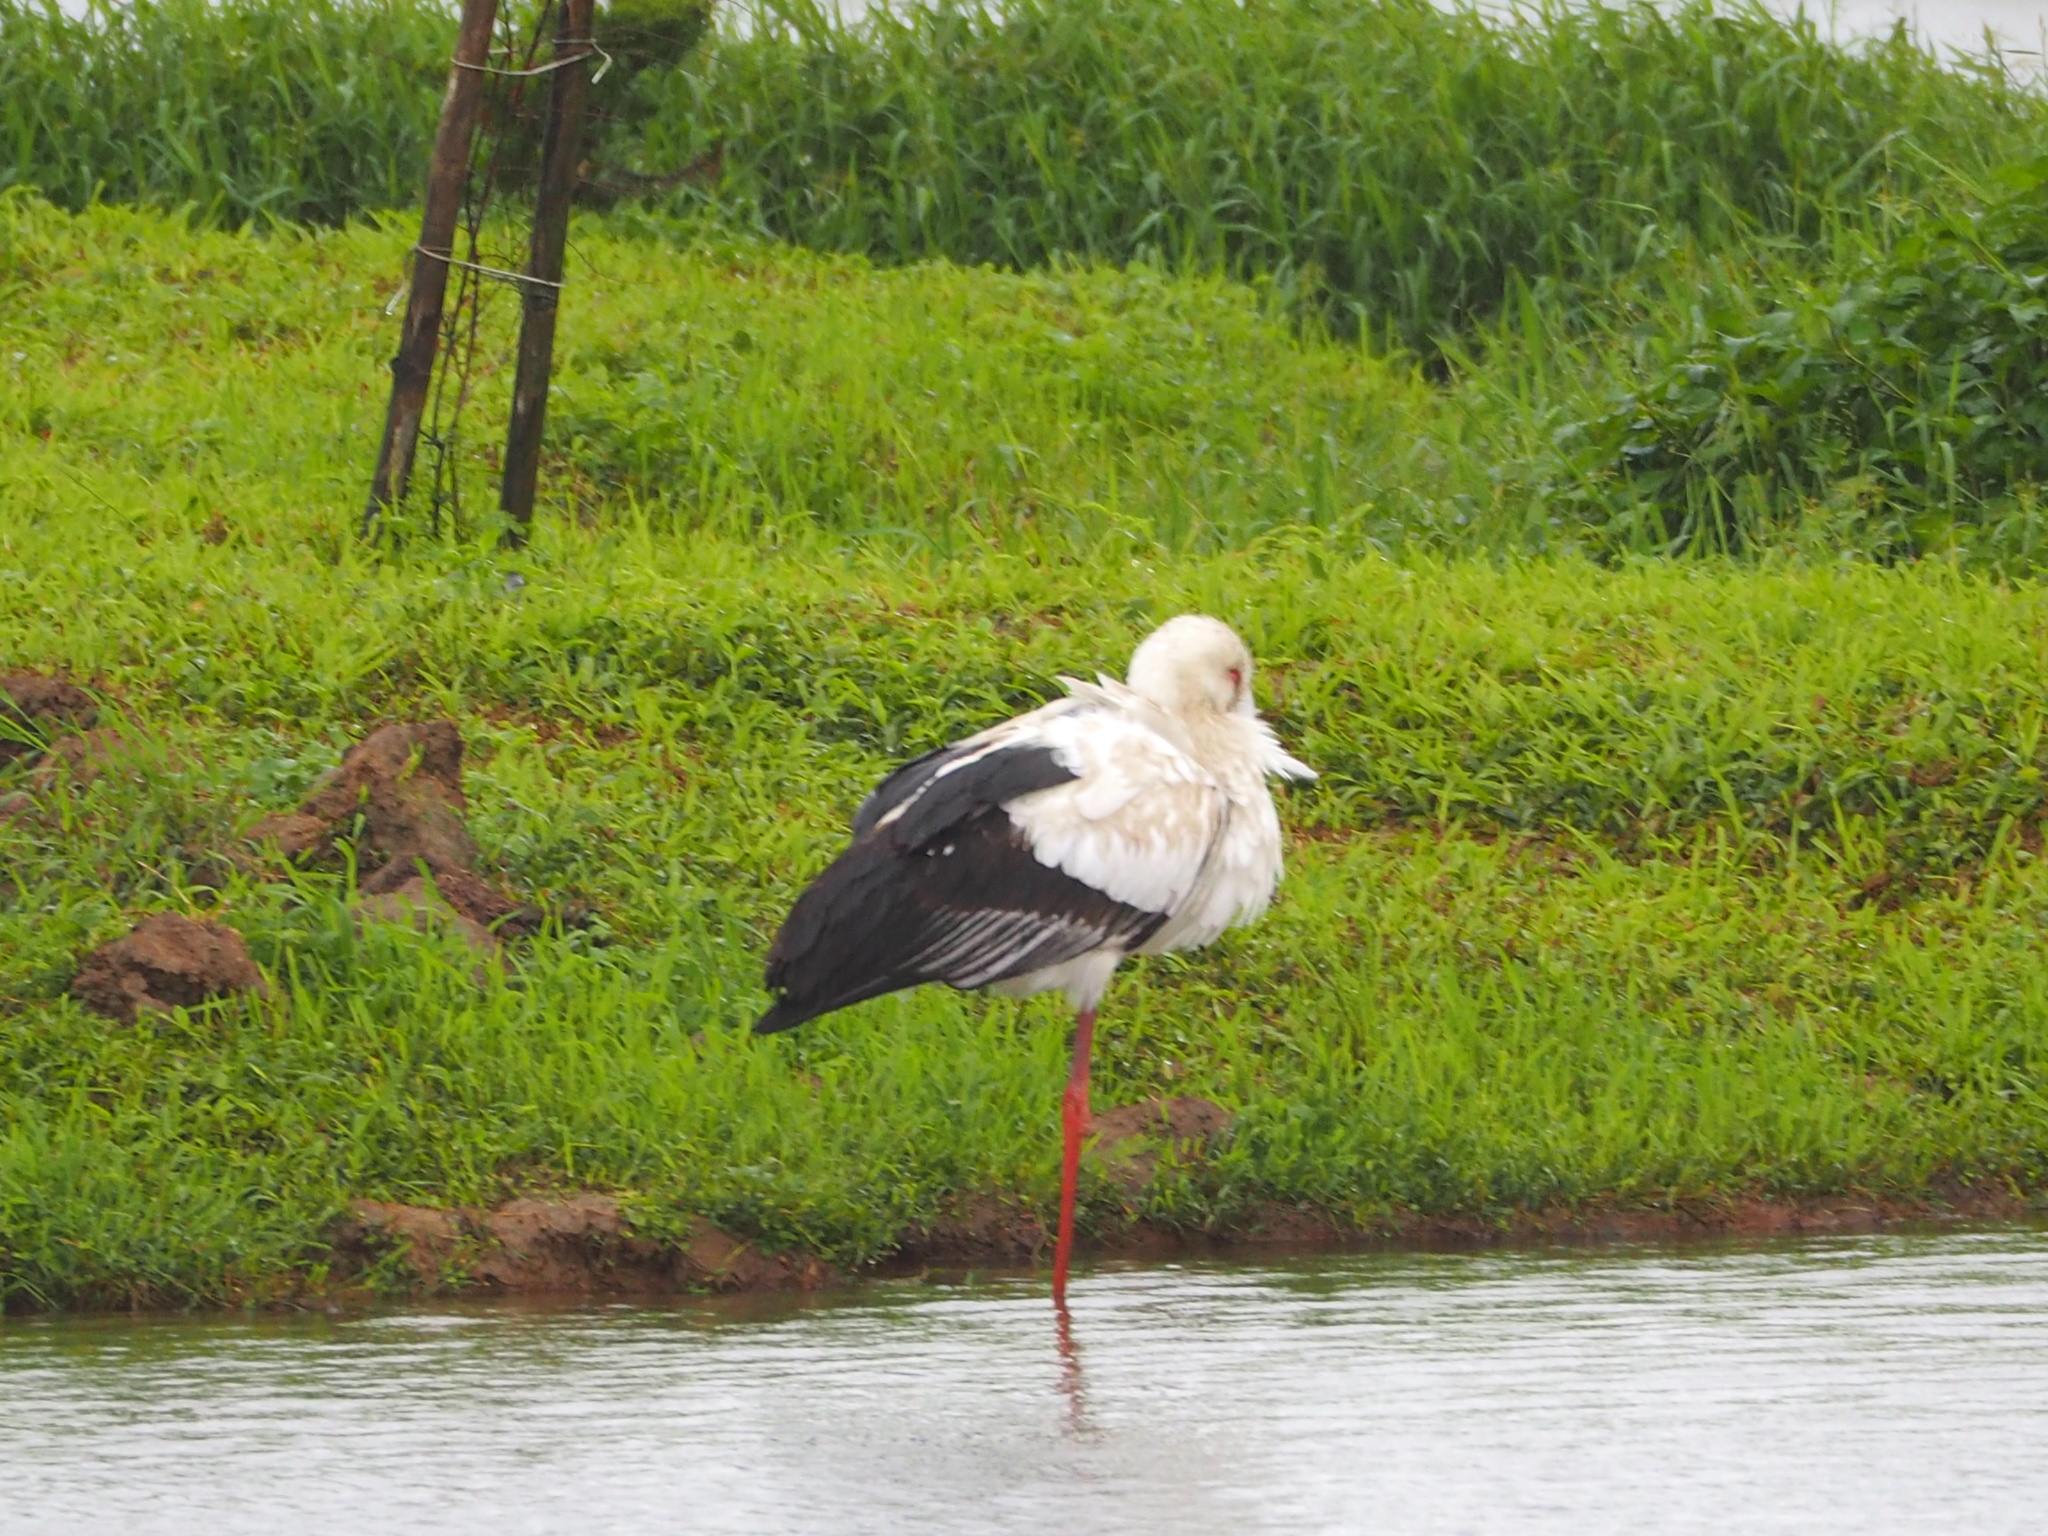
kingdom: Animalia
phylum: Chordata
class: Aves
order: Ciconiiformes
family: Ciconiidae
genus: Ciconia
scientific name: Ciconia boyciana
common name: Oriental stork
